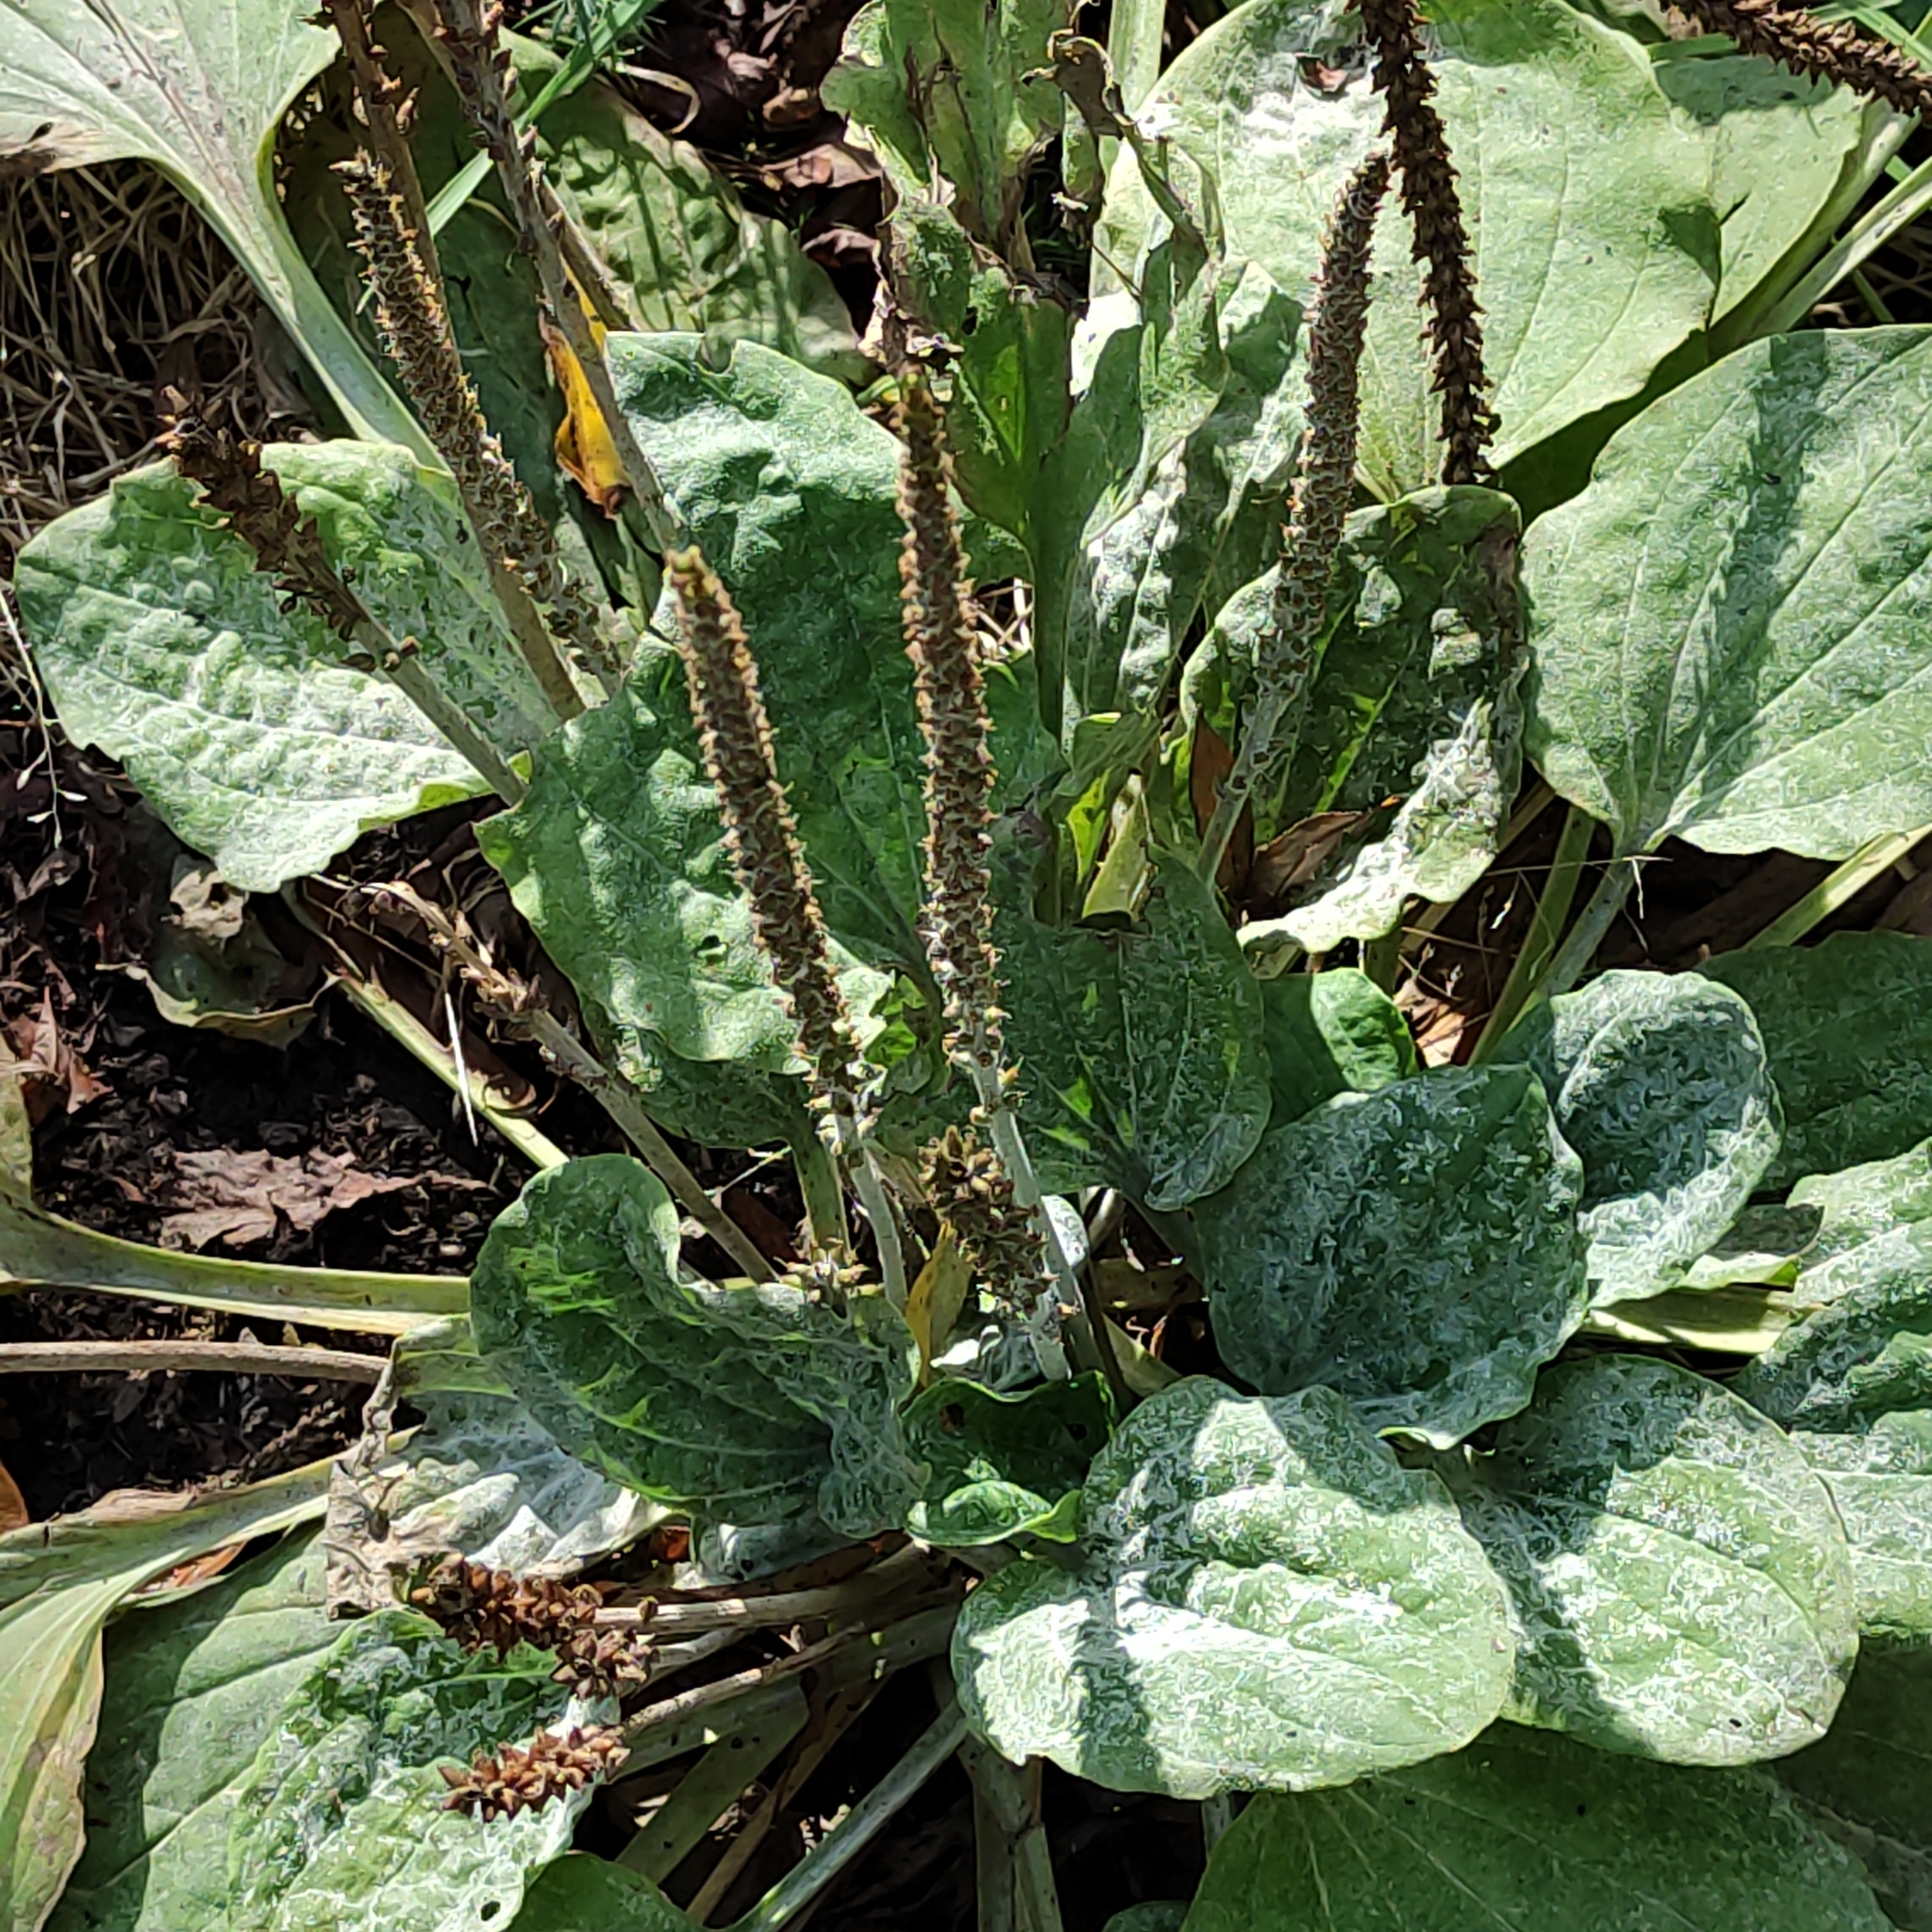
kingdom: Plantae
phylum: Tracheophyta
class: Magnoliopsida
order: Lamiales
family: Plantaginaceae
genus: Plantago
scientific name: Plantago major
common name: Common plantain
